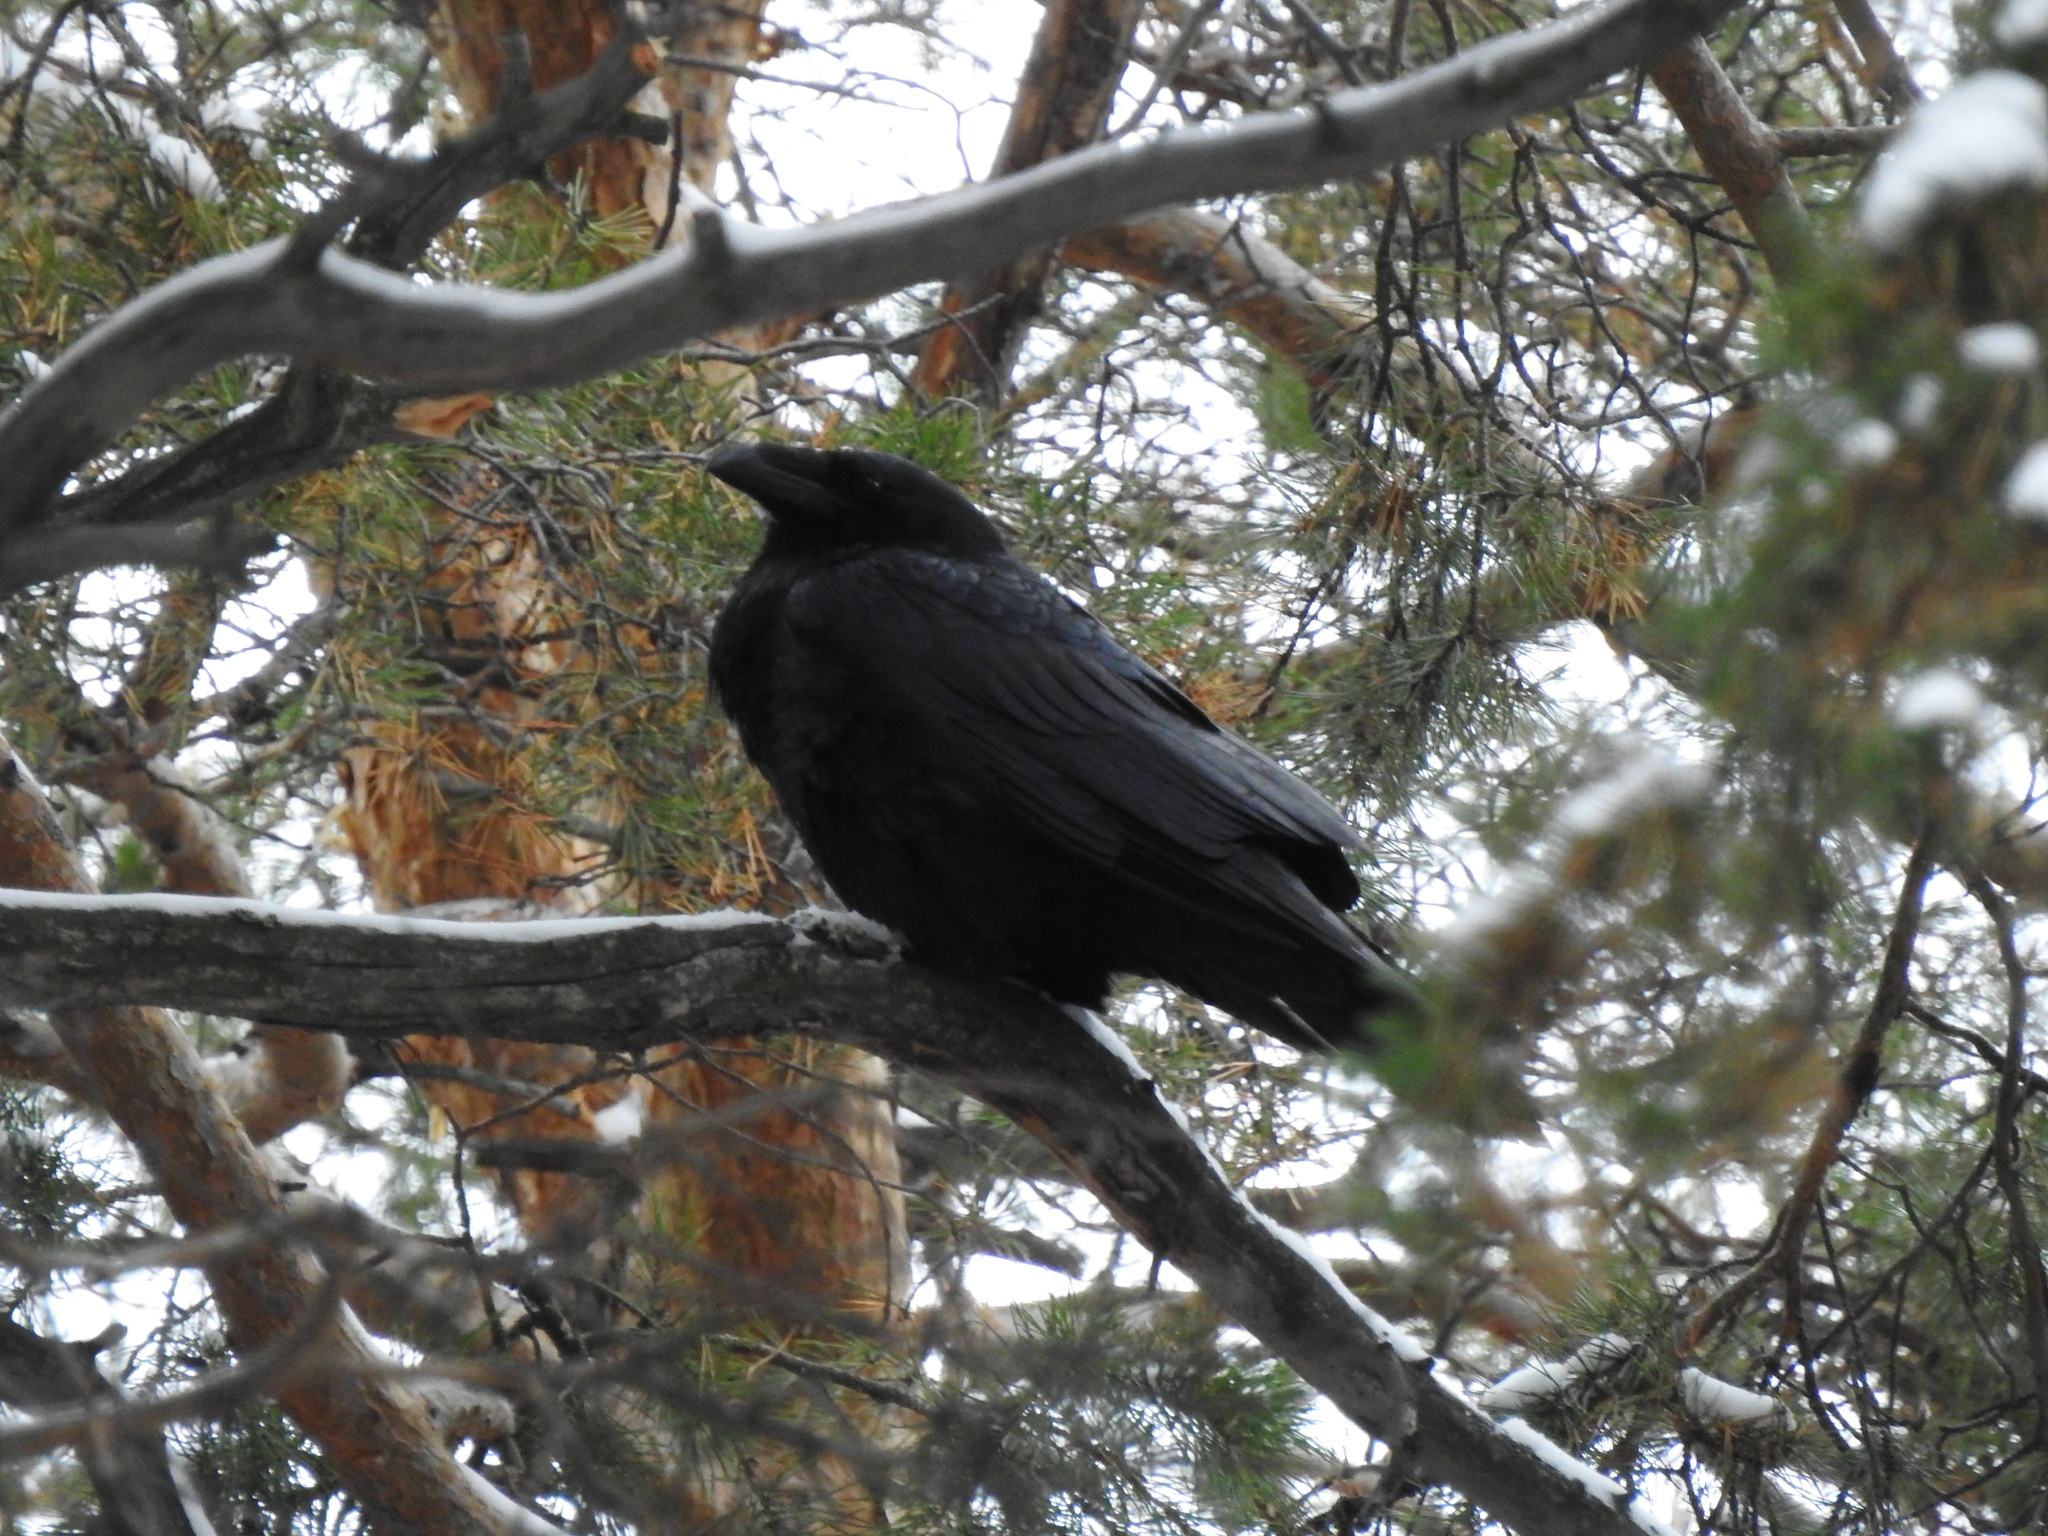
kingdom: Animalia
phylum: Chordata
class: Aves
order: Passeriformes
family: Corvidae
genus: Corvus
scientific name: Corvus corax
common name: Common raven
